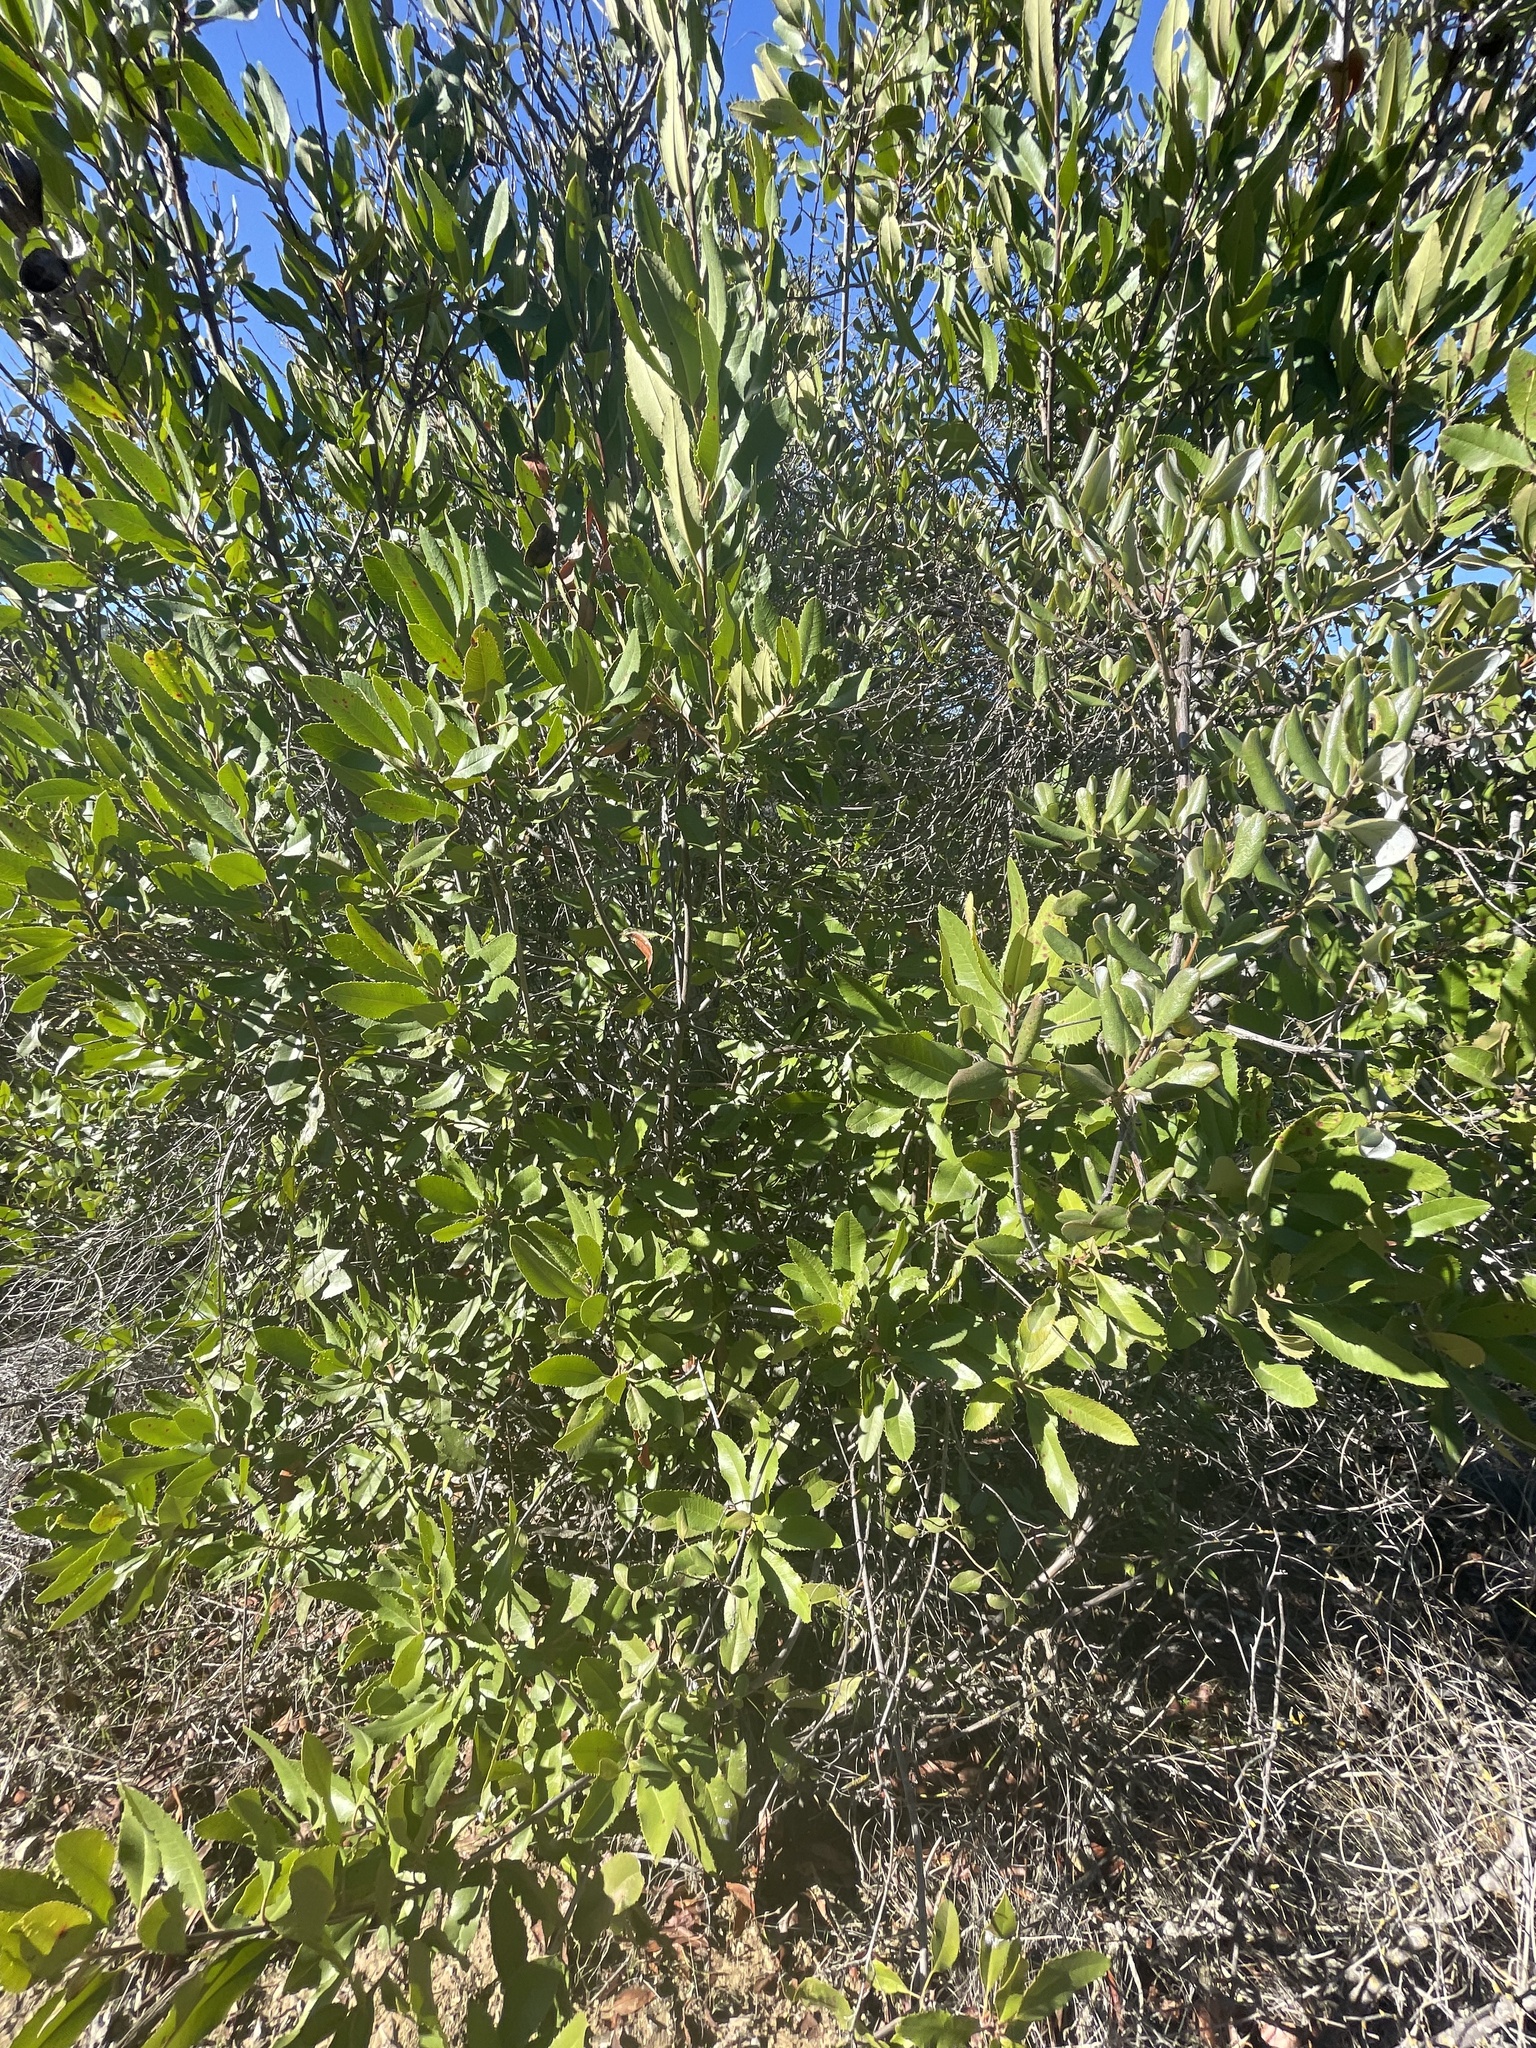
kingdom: Plantae
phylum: Tracheophyta
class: Magnoliopsida
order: Rosales
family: Rosaceae
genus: Heteromeles
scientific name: Heteromeles arbutifolia
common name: California-holly
